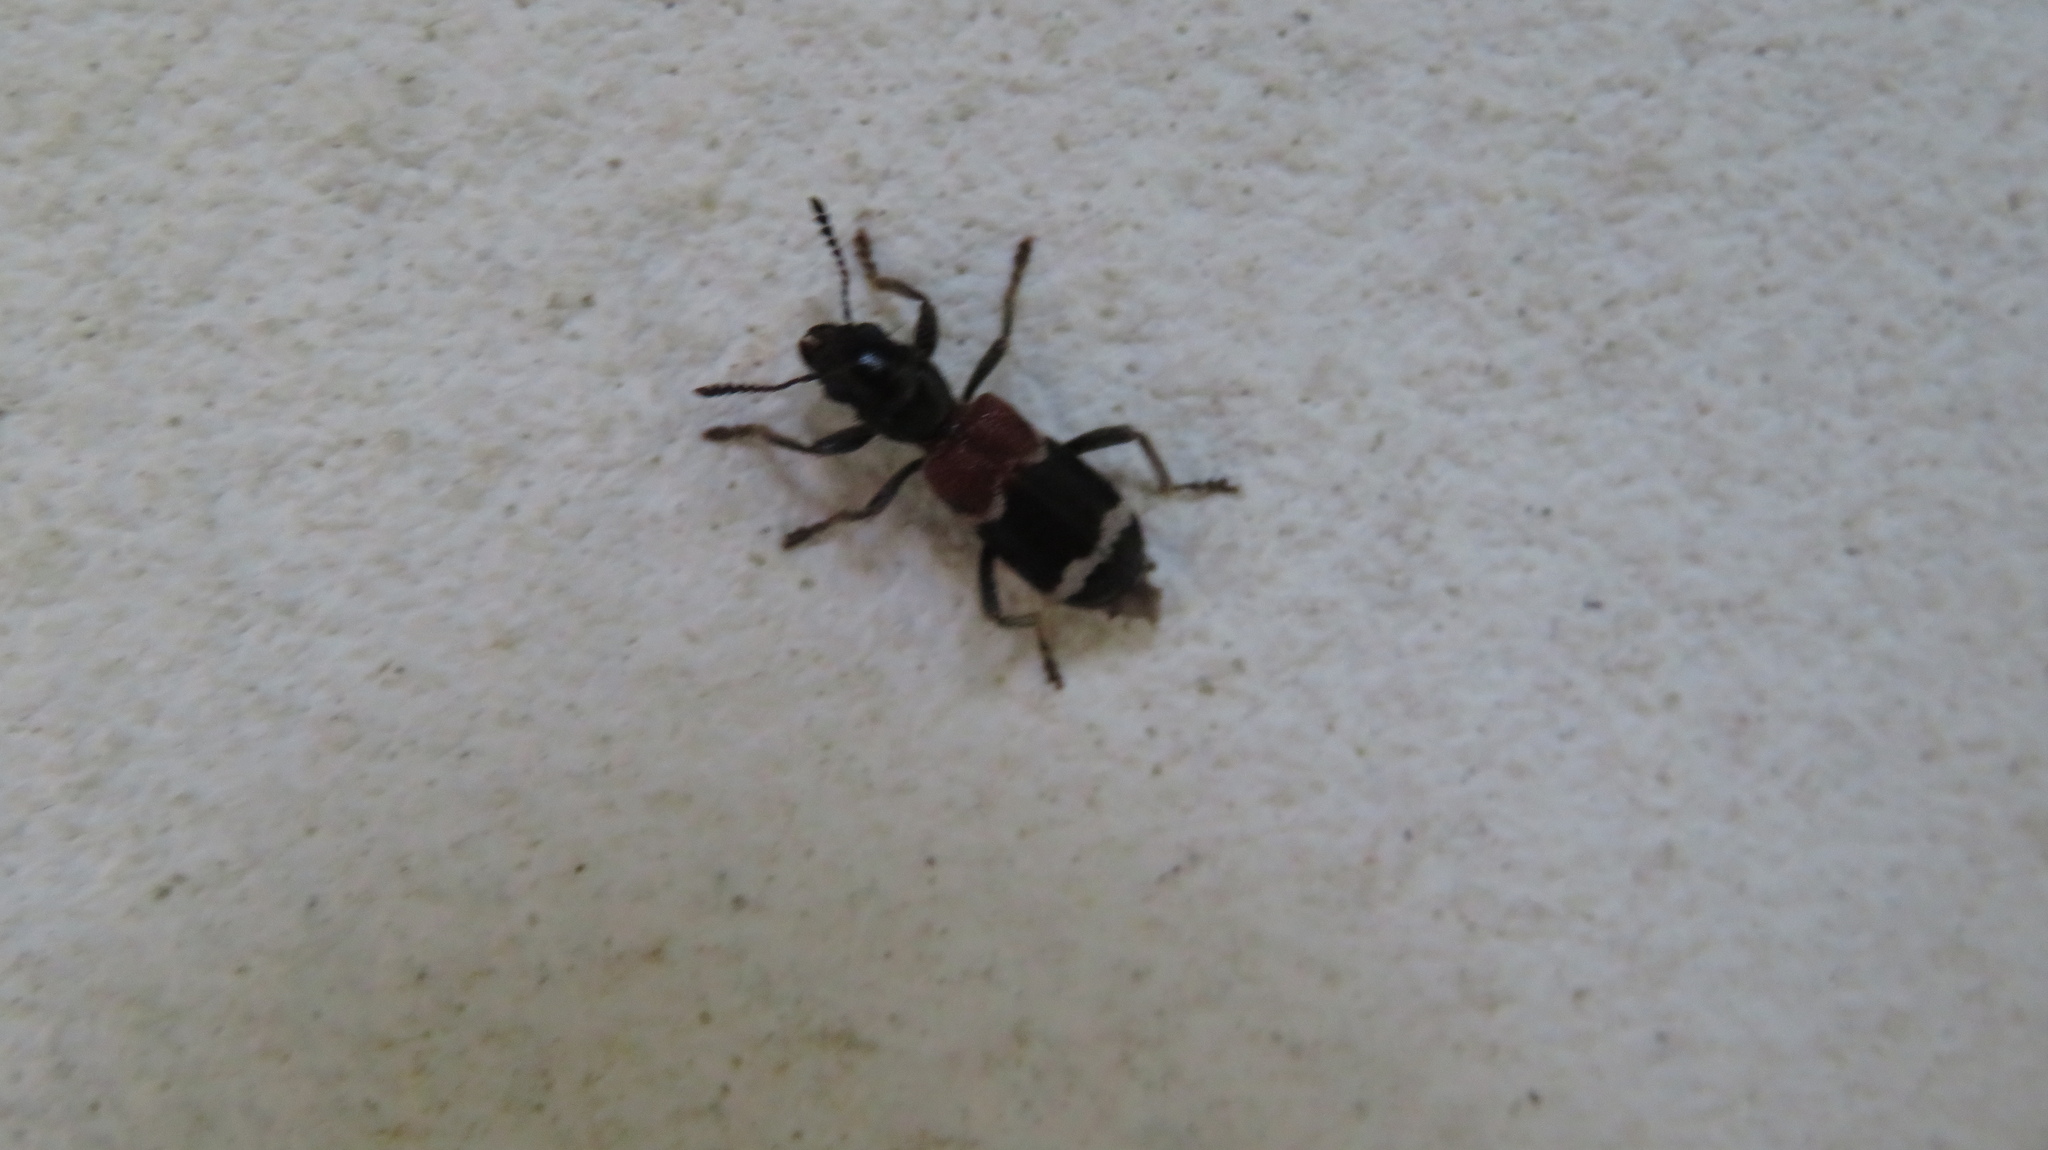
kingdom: Animalia
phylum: Arthropoda
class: Insecta
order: Coleoptera
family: Cleridae
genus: Thanasimus
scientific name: Thanasimus
